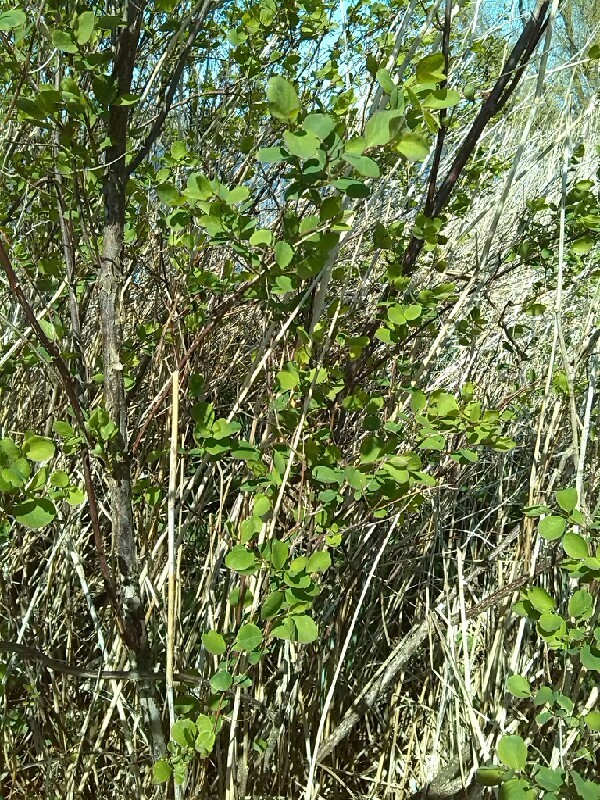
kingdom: Plantae
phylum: Tracheophyta
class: Magnoliopsida
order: Dipsacales
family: Caprifoliaceae
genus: Symphoricarpos
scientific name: Symphoricarpos albus
